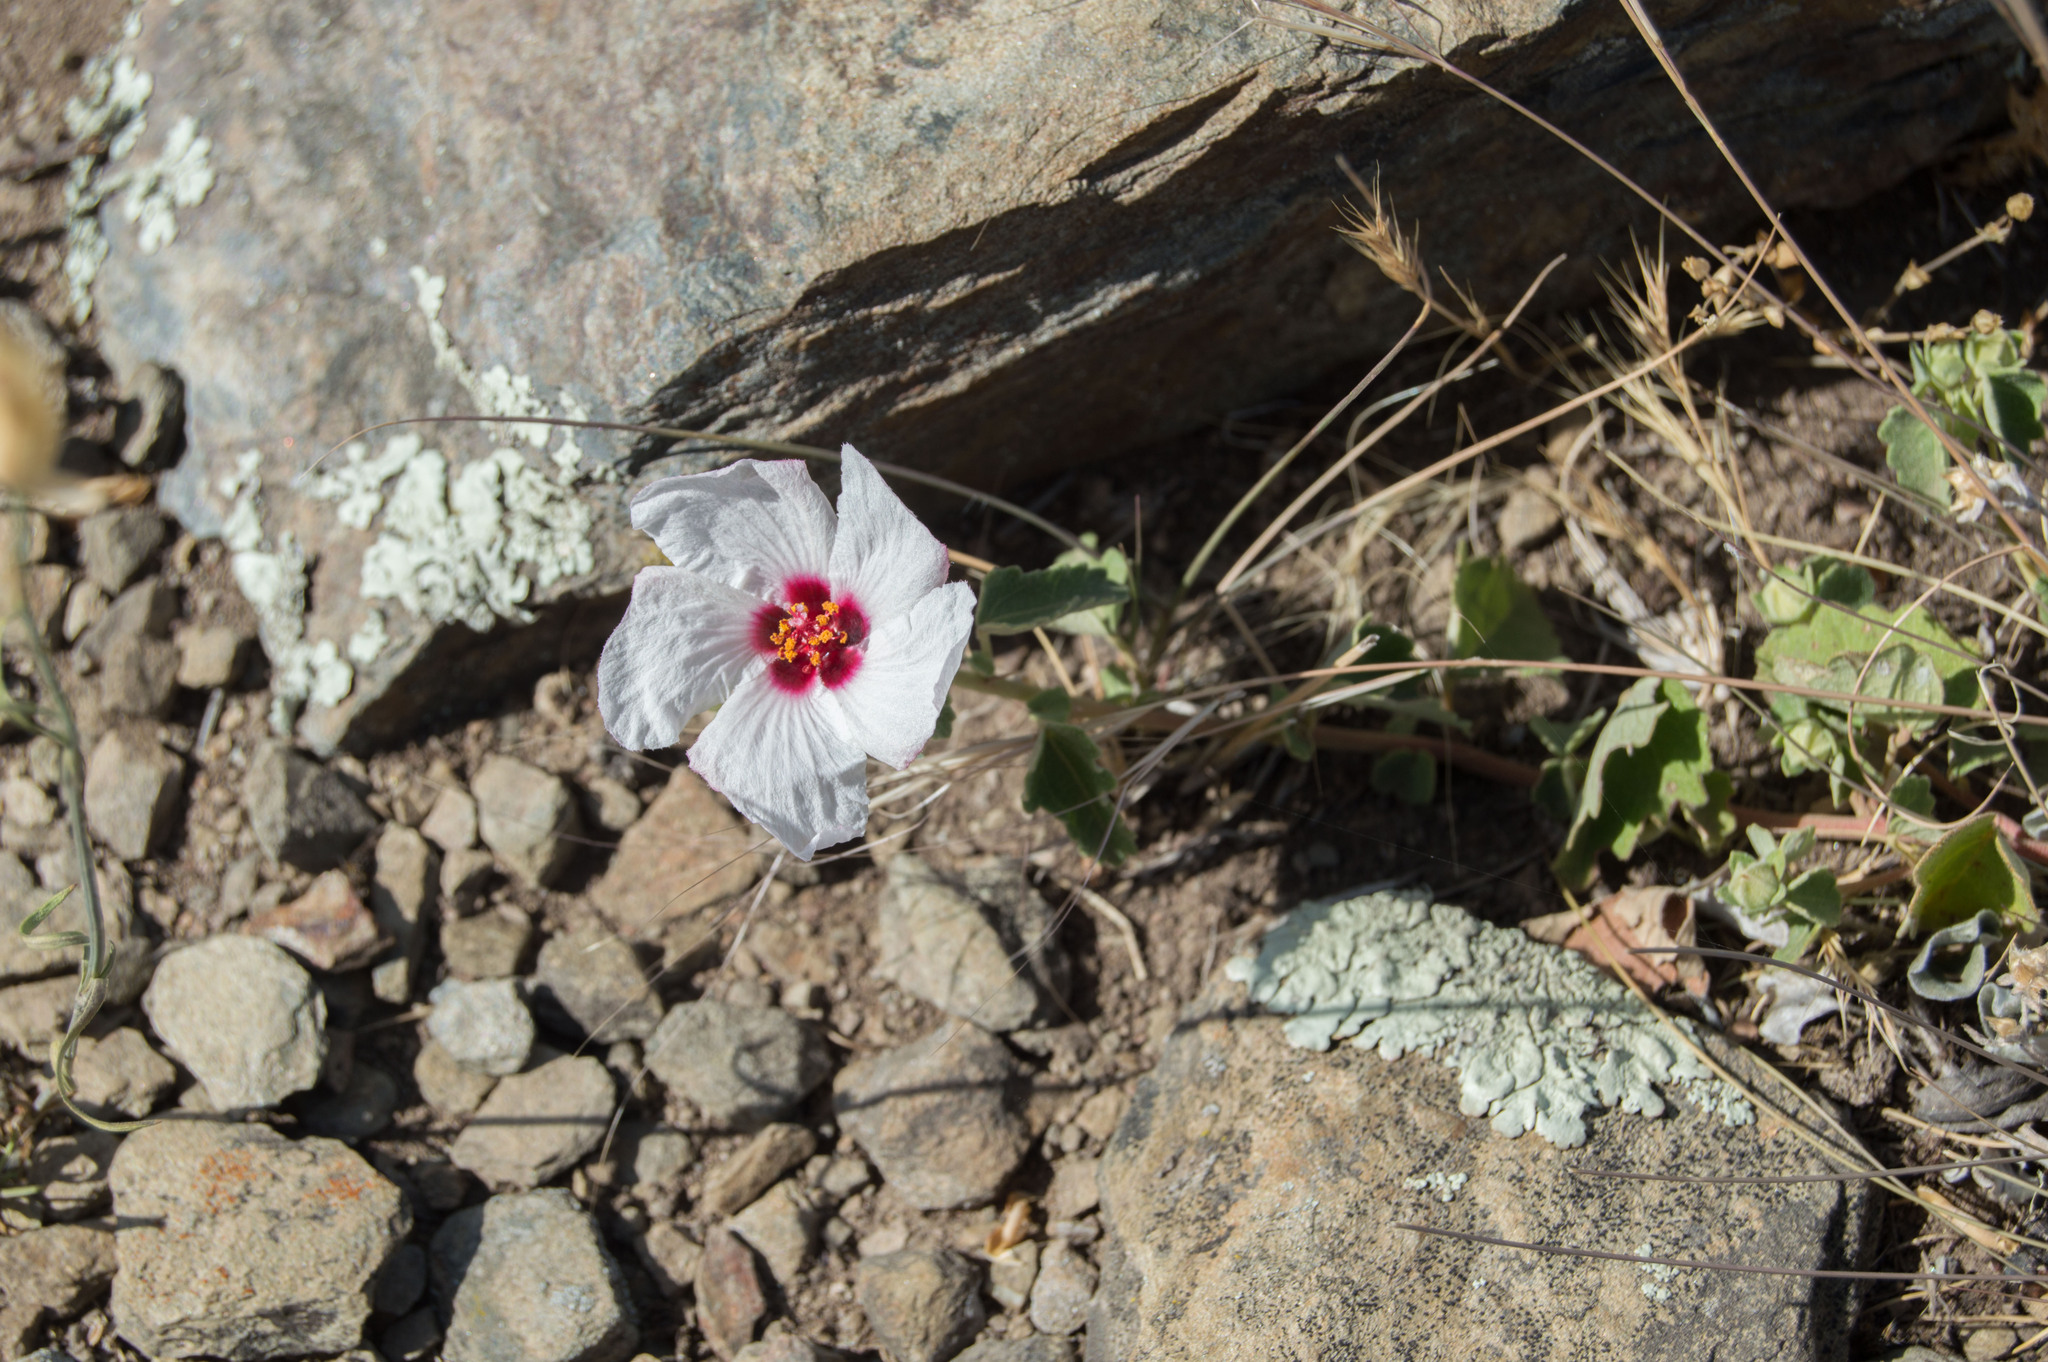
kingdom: Plantae
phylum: Tracheophyta
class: Magnoliopsida
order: Malvales
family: Malvaceae
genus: Pavonia
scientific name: Pavonia cymbalaria
